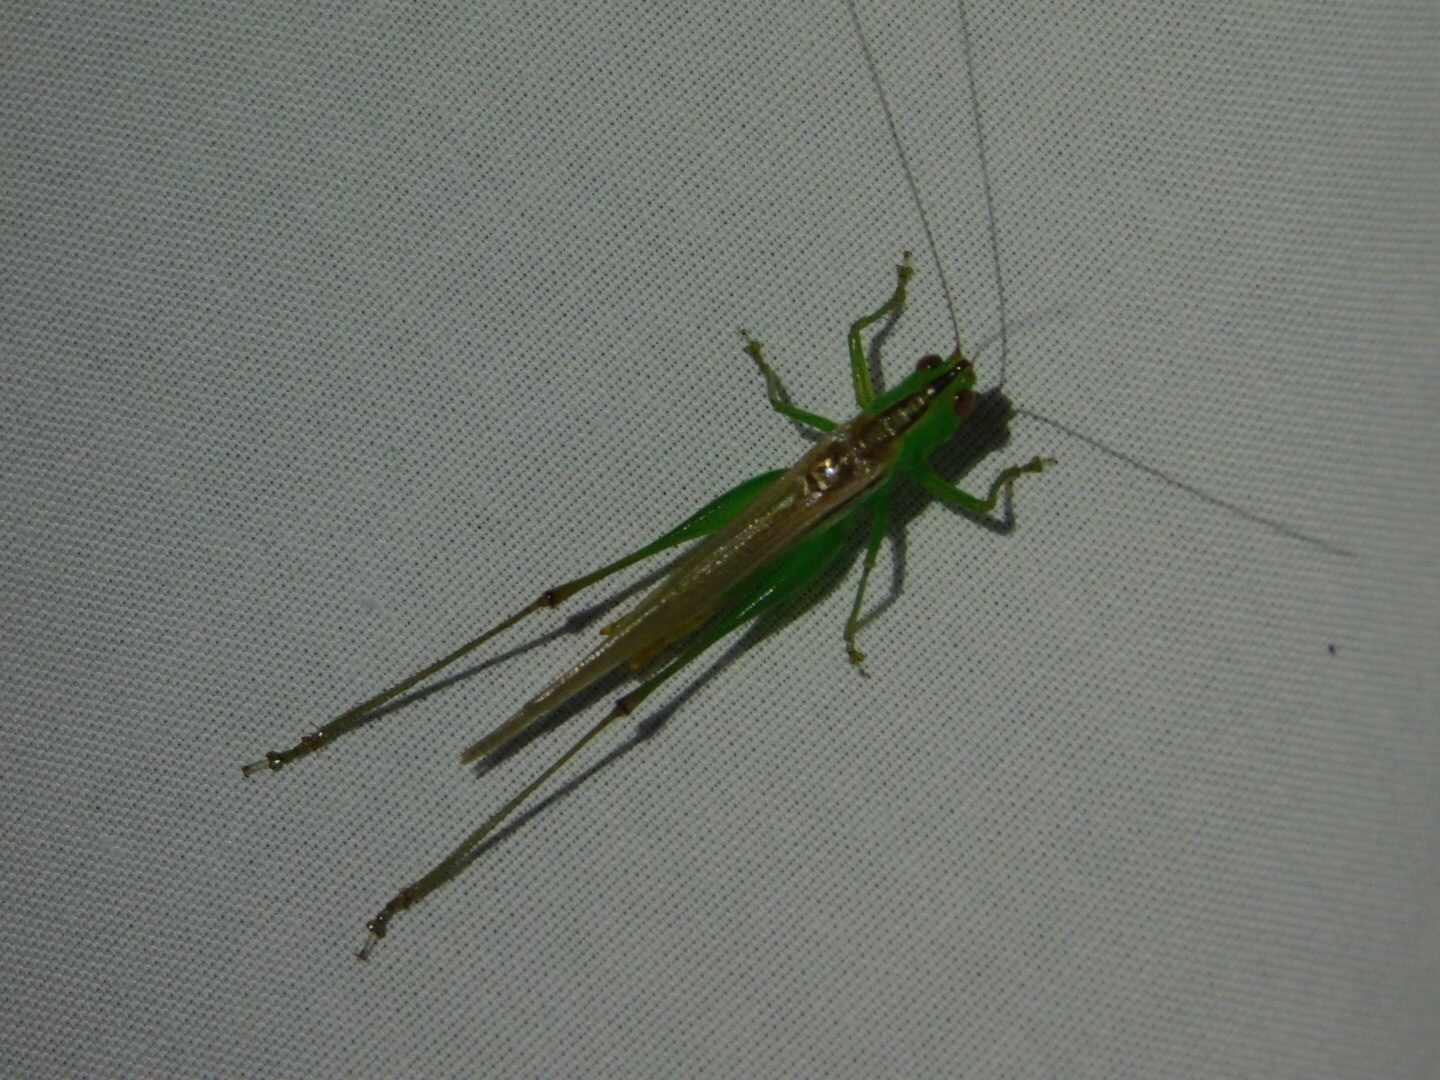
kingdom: Animalia
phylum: Arthropoda
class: Insecta
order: Orthoptera
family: Tettigoniidae
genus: Conocephalus
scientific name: Conocephalus cinereus
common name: Caribbean meadow katydid
